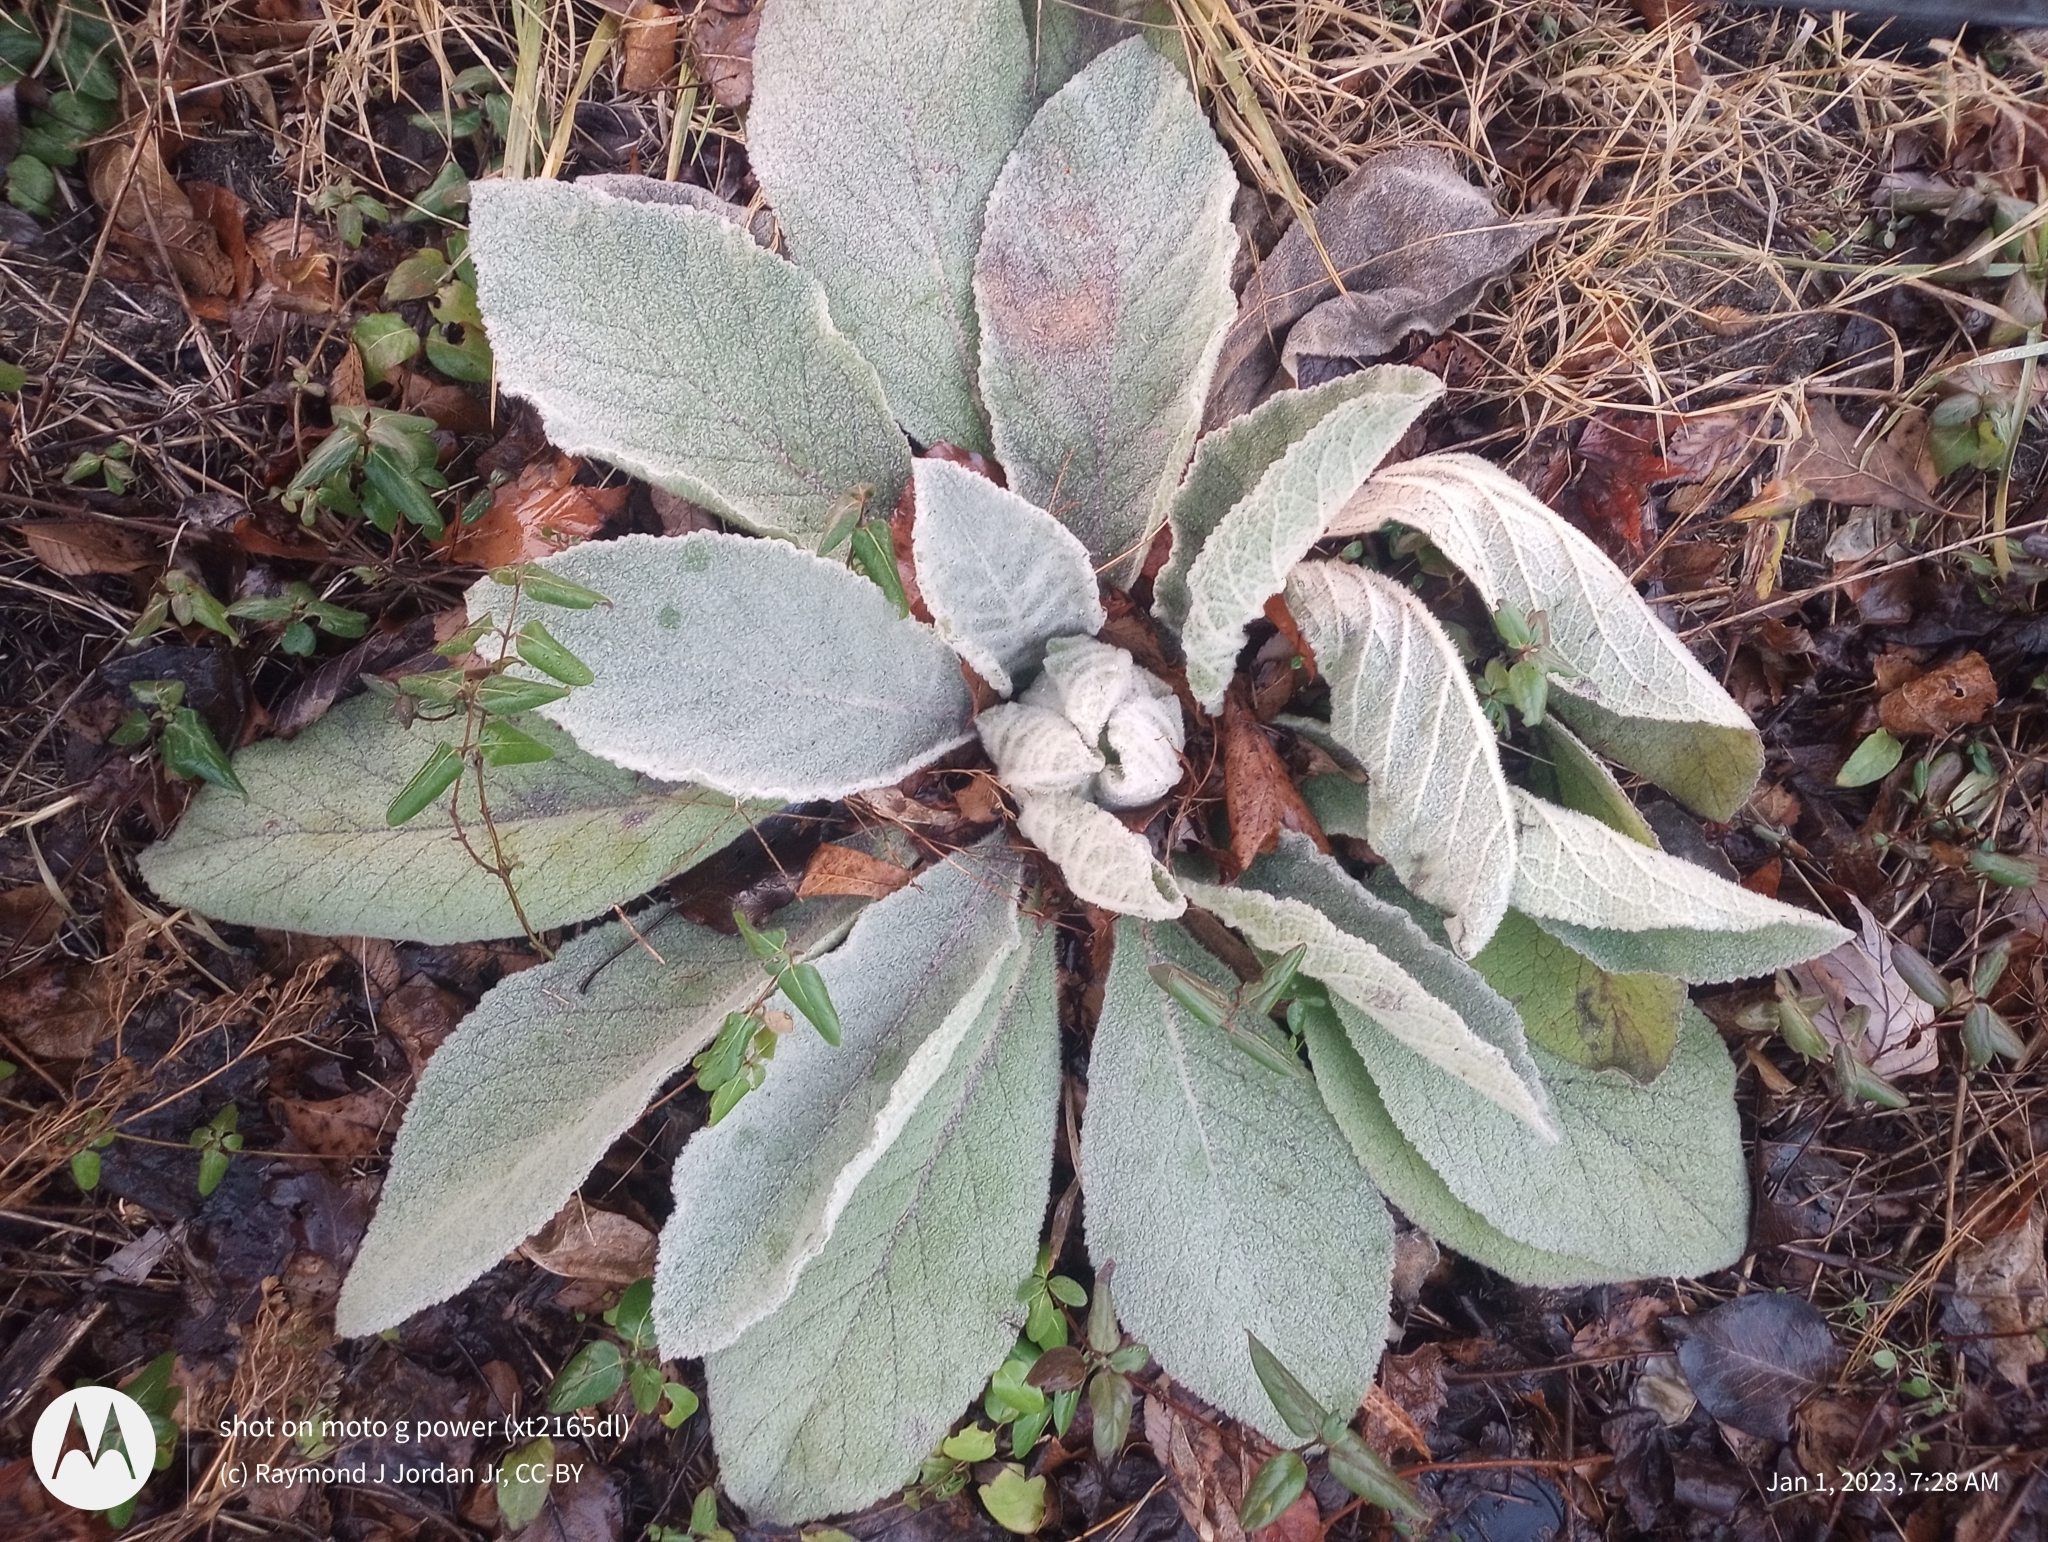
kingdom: Plantae
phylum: Tracheophyta
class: Magnoliopsida
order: Lamiales
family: Scrophulariaceae
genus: Verbascum
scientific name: Verbascum thapsus
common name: Common mullein
